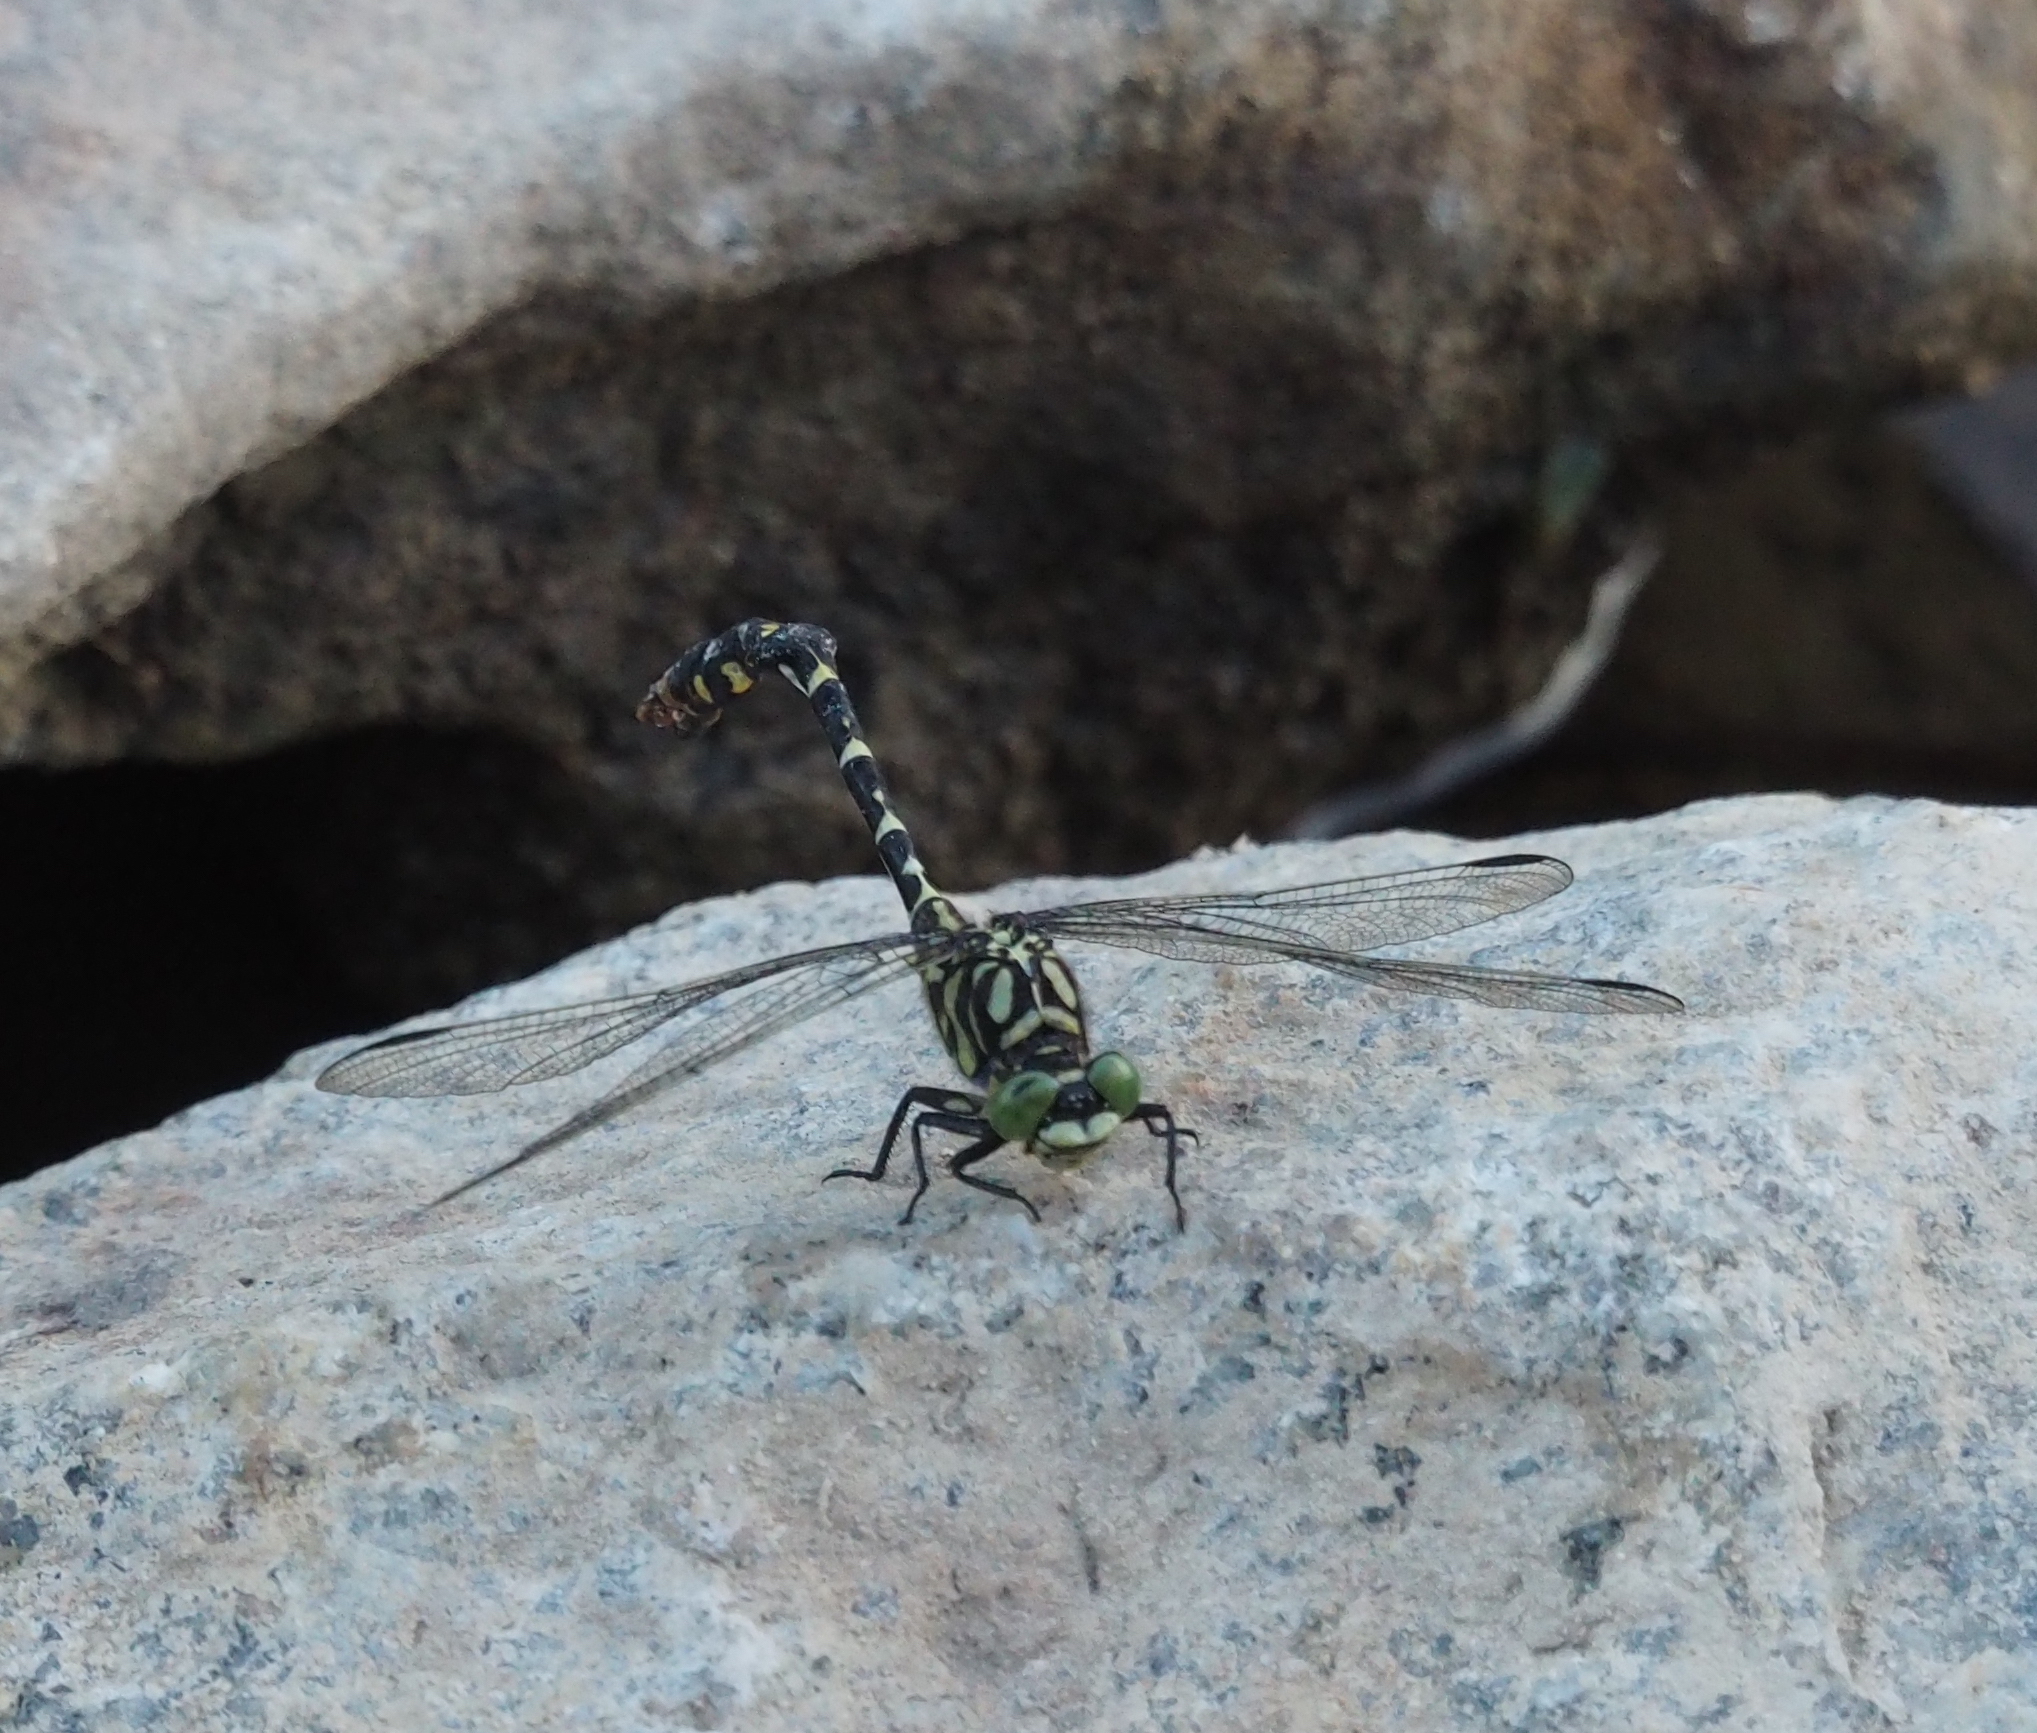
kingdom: Animalia
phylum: Arthropoda
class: Insecta
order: Odonata
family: Gomphidae
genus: Onychogomphus
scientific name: Onychogomphus forcipatus
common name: Small pincertail
